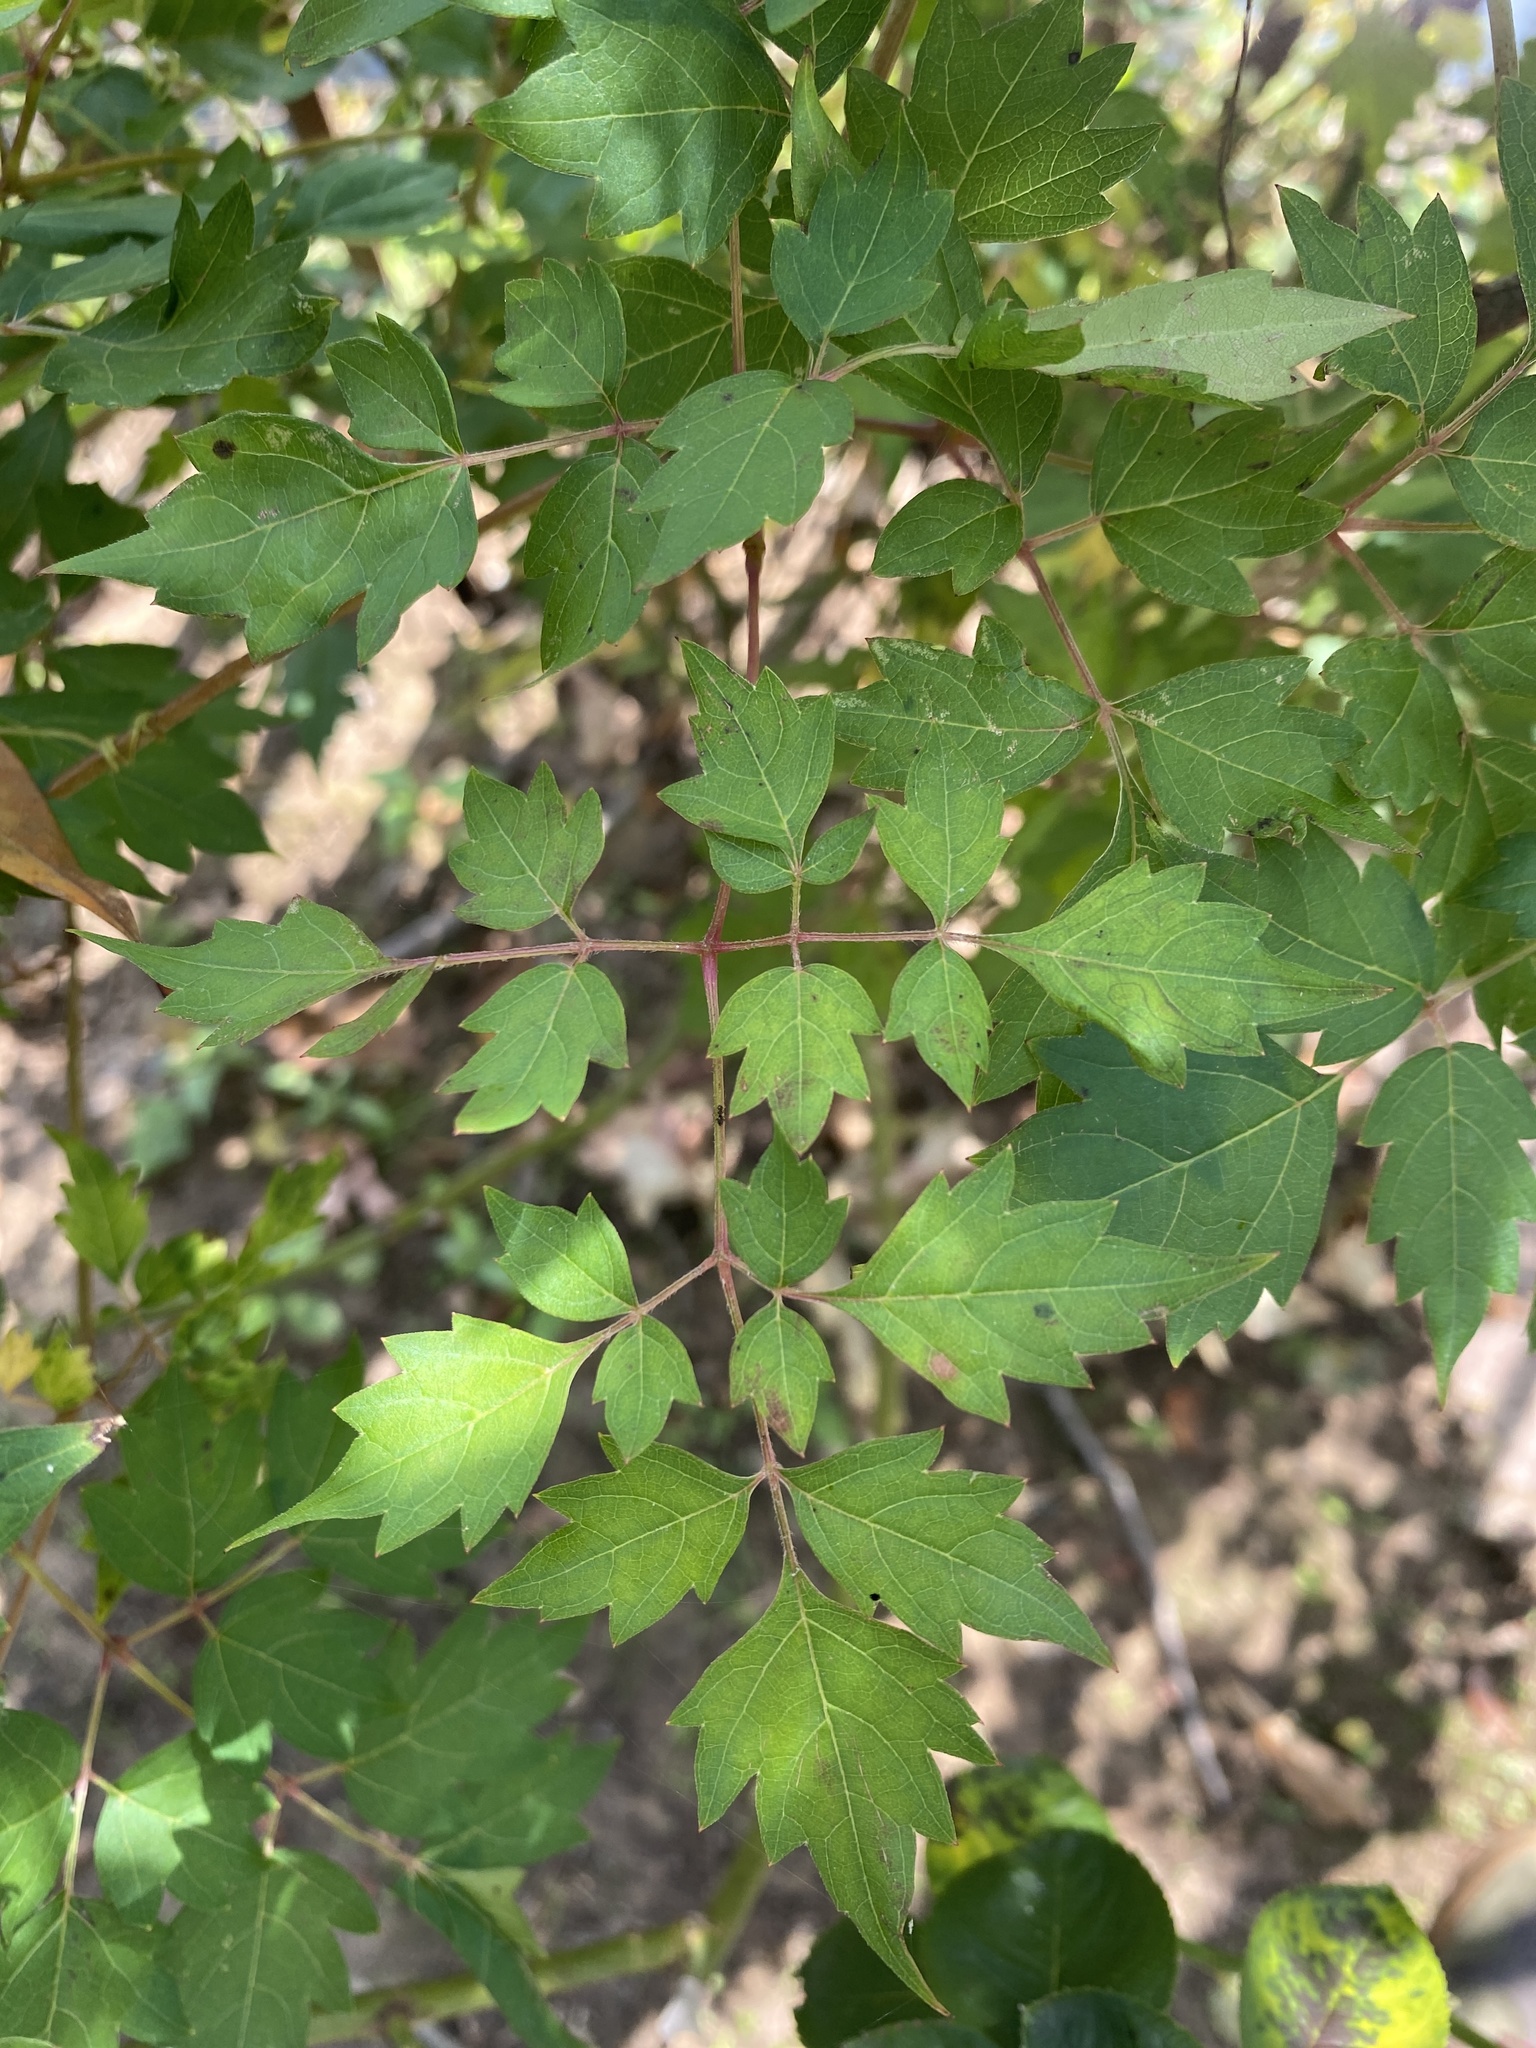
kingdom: Plantae
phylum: Tracheophyta
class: Magnoliopsida
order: Vitales
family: Vitaceae
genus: Nekemias
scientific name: Nekemias arborea
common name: Peppervine
